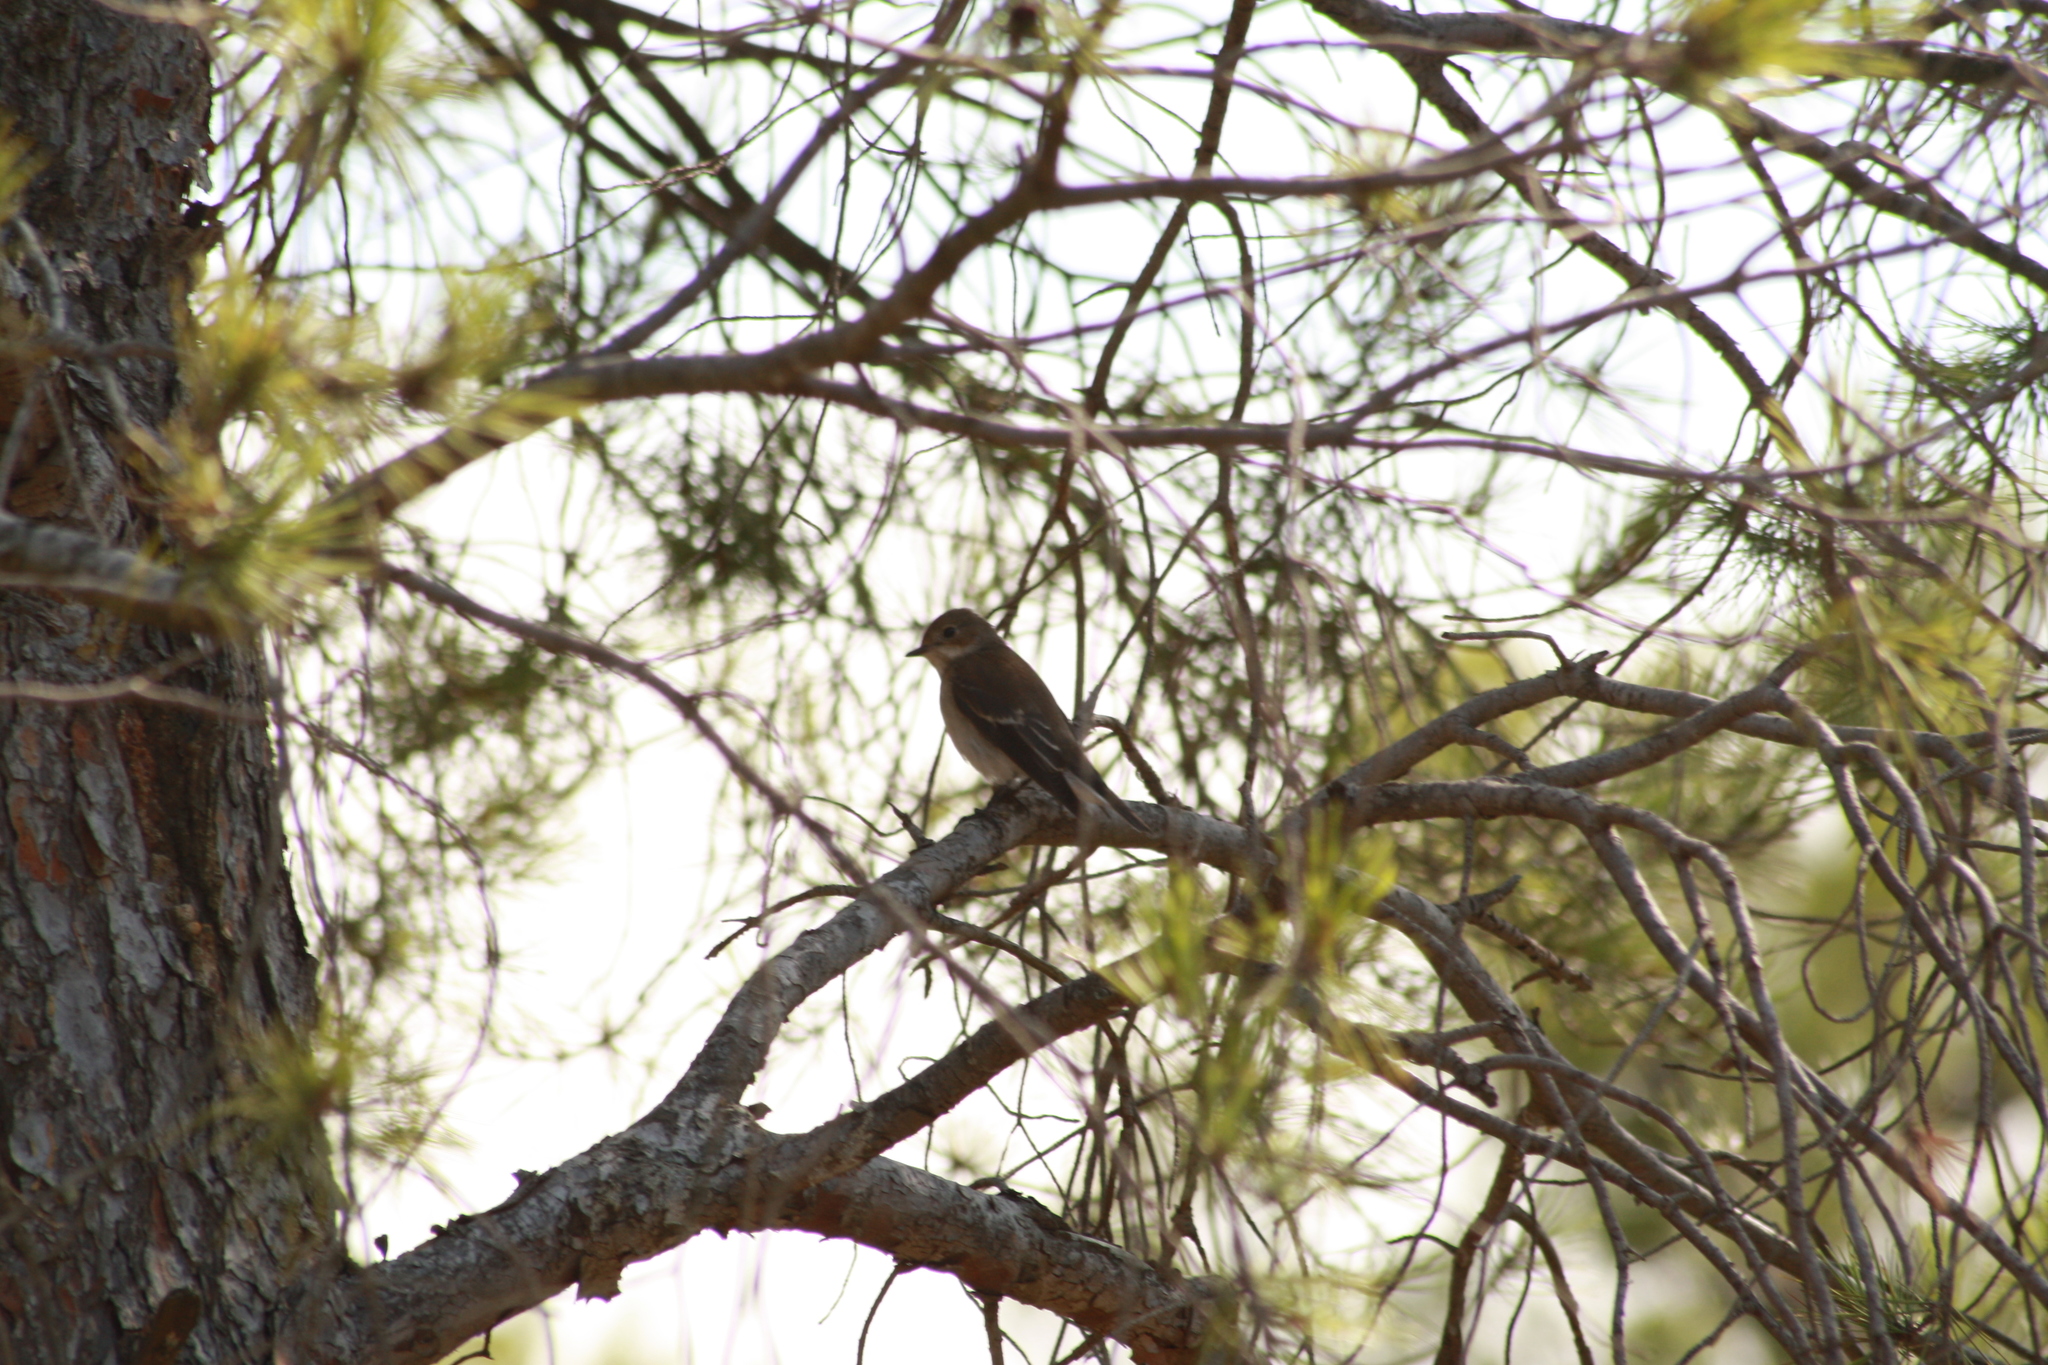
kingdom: Animalia
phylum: Chordata
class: Aves
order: Passeriformes
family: Muscicapidae
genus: Ficedula
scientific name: Ficedula hypoleuca
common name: European pied flycatcher
